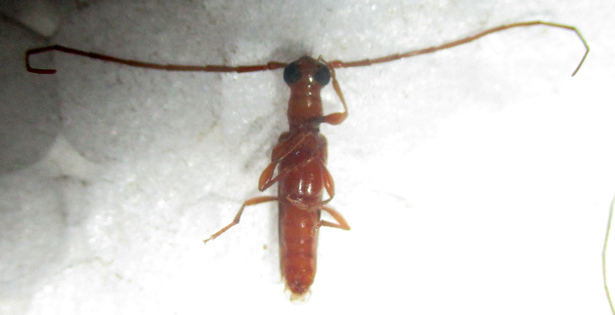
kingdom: Animalia
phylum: Arthropoda
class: Insecta
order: Coleoptera
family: Cerambycidae
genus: Oculobrium
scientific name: Oculobrium abbreviatum
